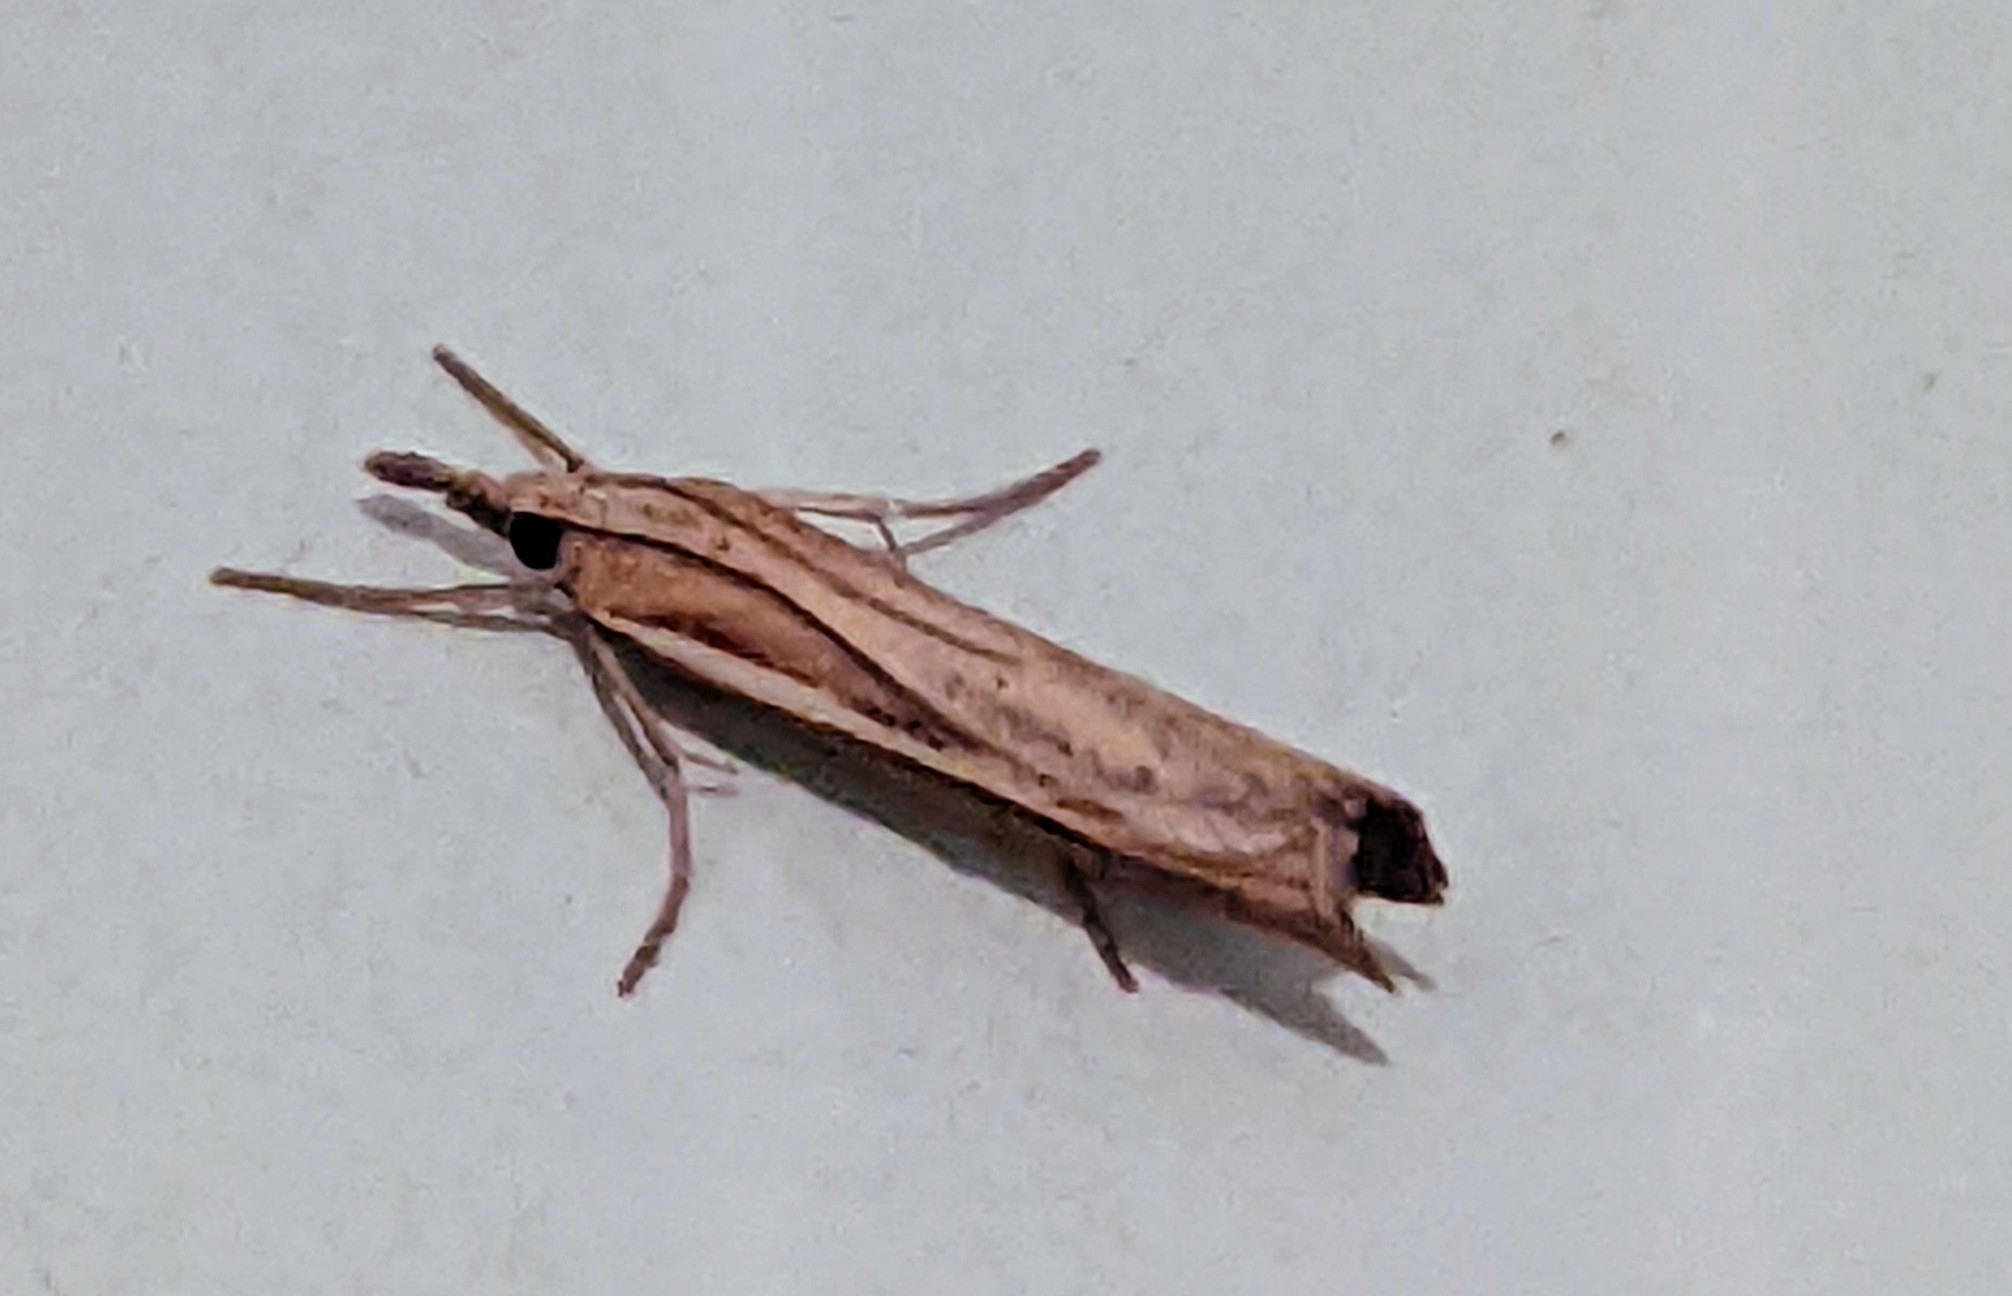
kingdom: Animalia
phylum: Arthropoda
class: Insecta
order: Lepidoptera
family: Crambidae
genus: Agriphila
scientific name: Agriphila tristellus
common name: Common grass-veneer
